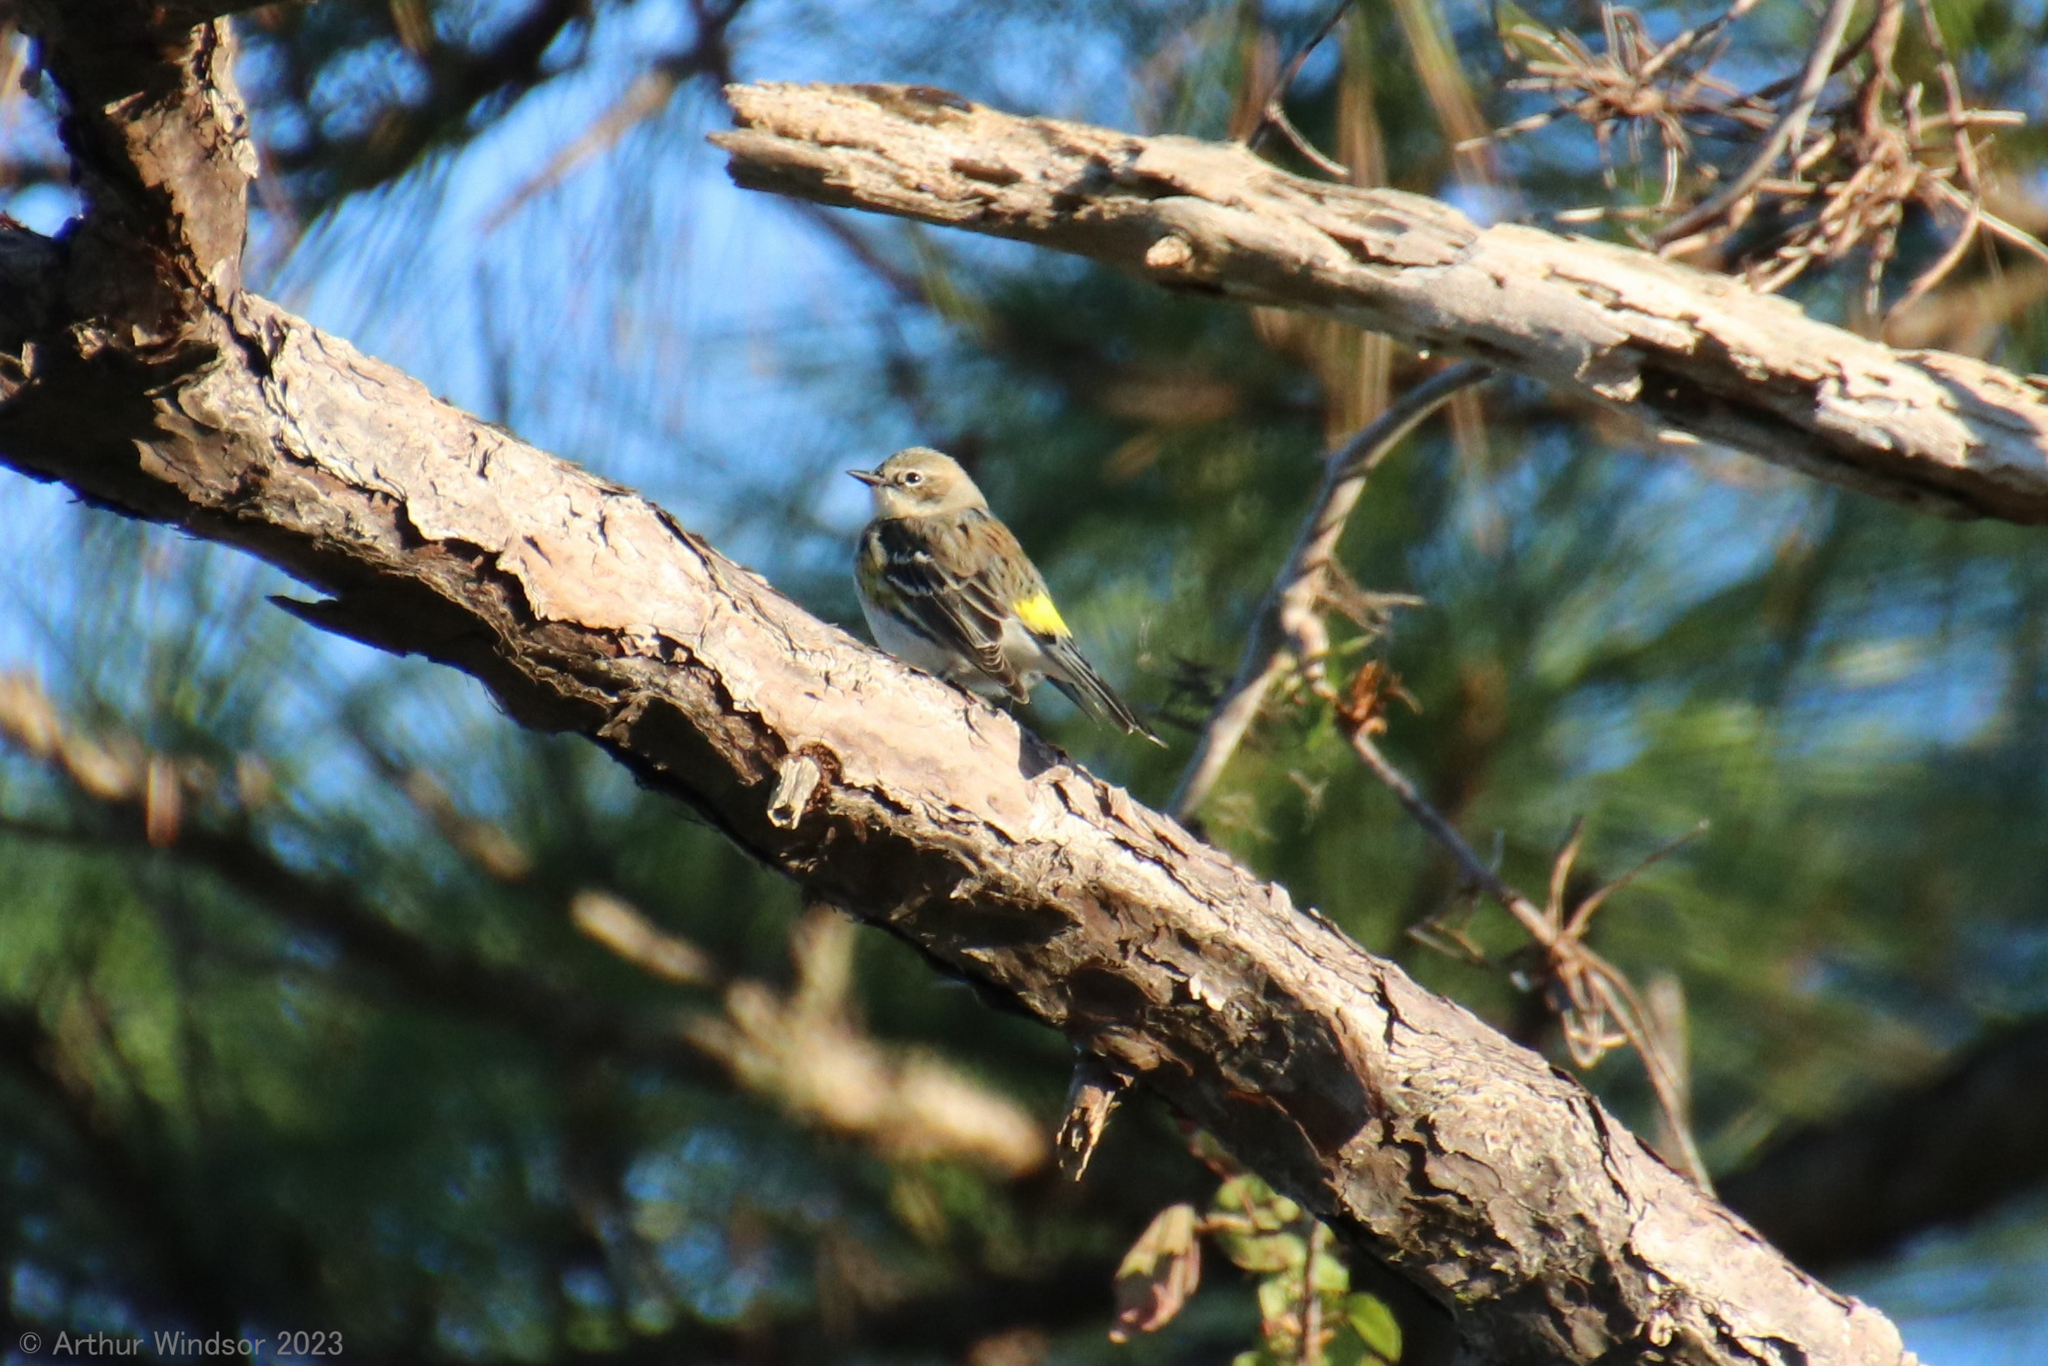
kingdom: Animalia
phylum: Chordata
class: Aves
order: Passeriformes
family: Parulidae
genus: Setophaga
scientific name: Setophaga coronata
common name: Myrtle warbler
